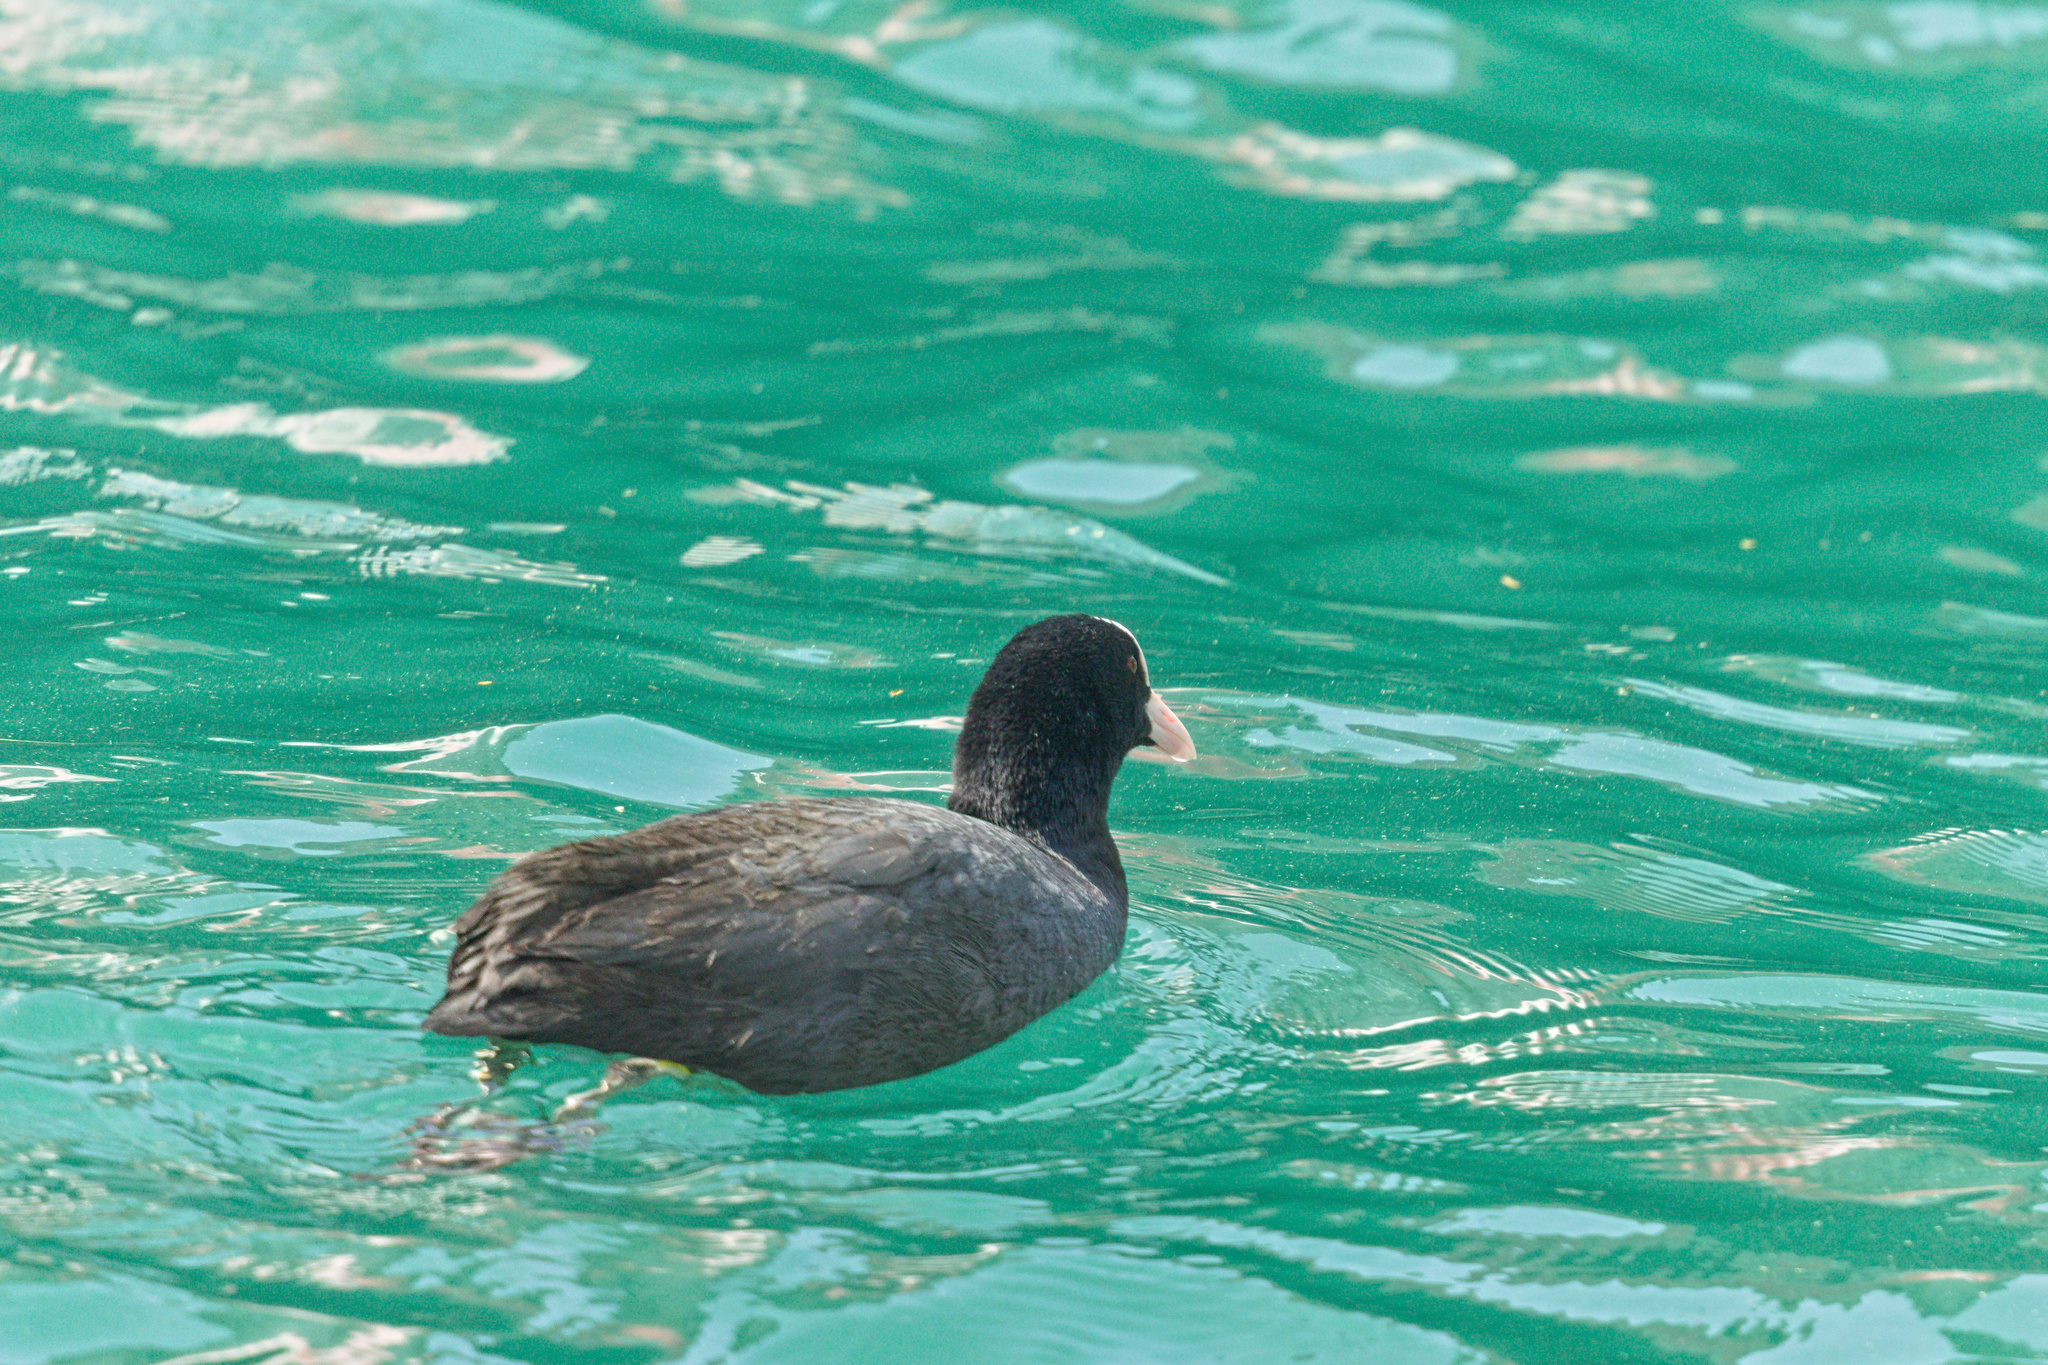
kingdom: Animalia
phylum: Chordata
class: Aves
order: Gruiformes
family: Rallidae
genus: Fulica
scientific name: Fulica atra
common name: Eurasian coot
